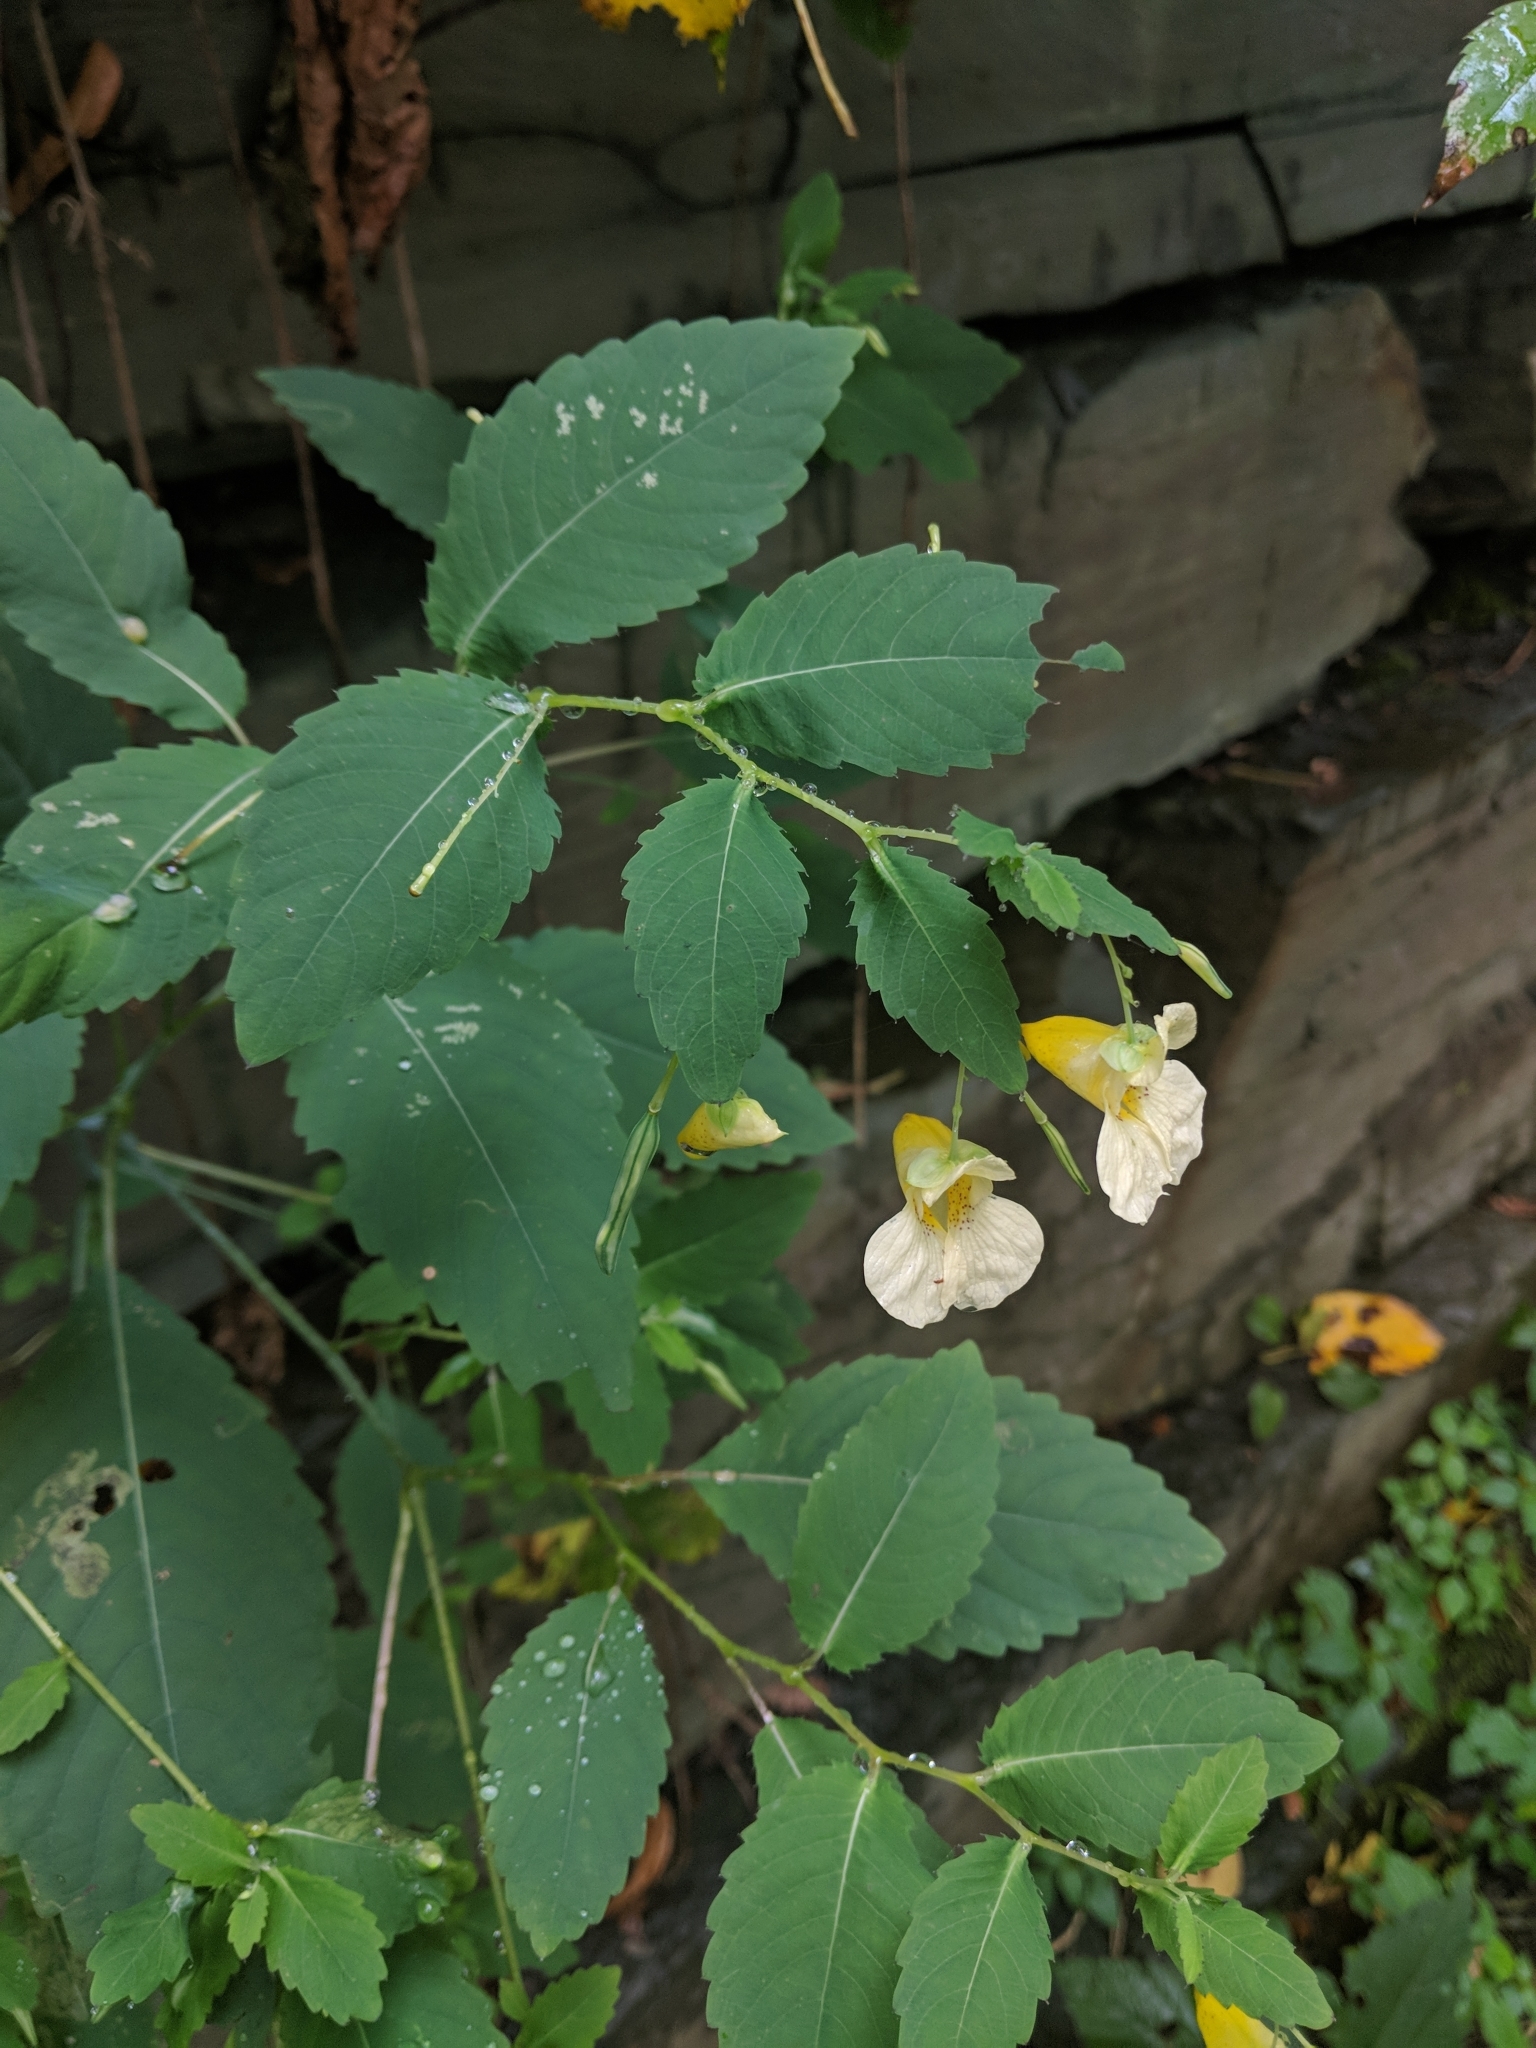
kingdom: Plantae
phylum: Tracheophyta
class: Magnoliopsida
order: Ericales
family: Balsaminaceae
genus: Impatiens
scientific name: Impatiens pallida
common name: Pale snapweed
